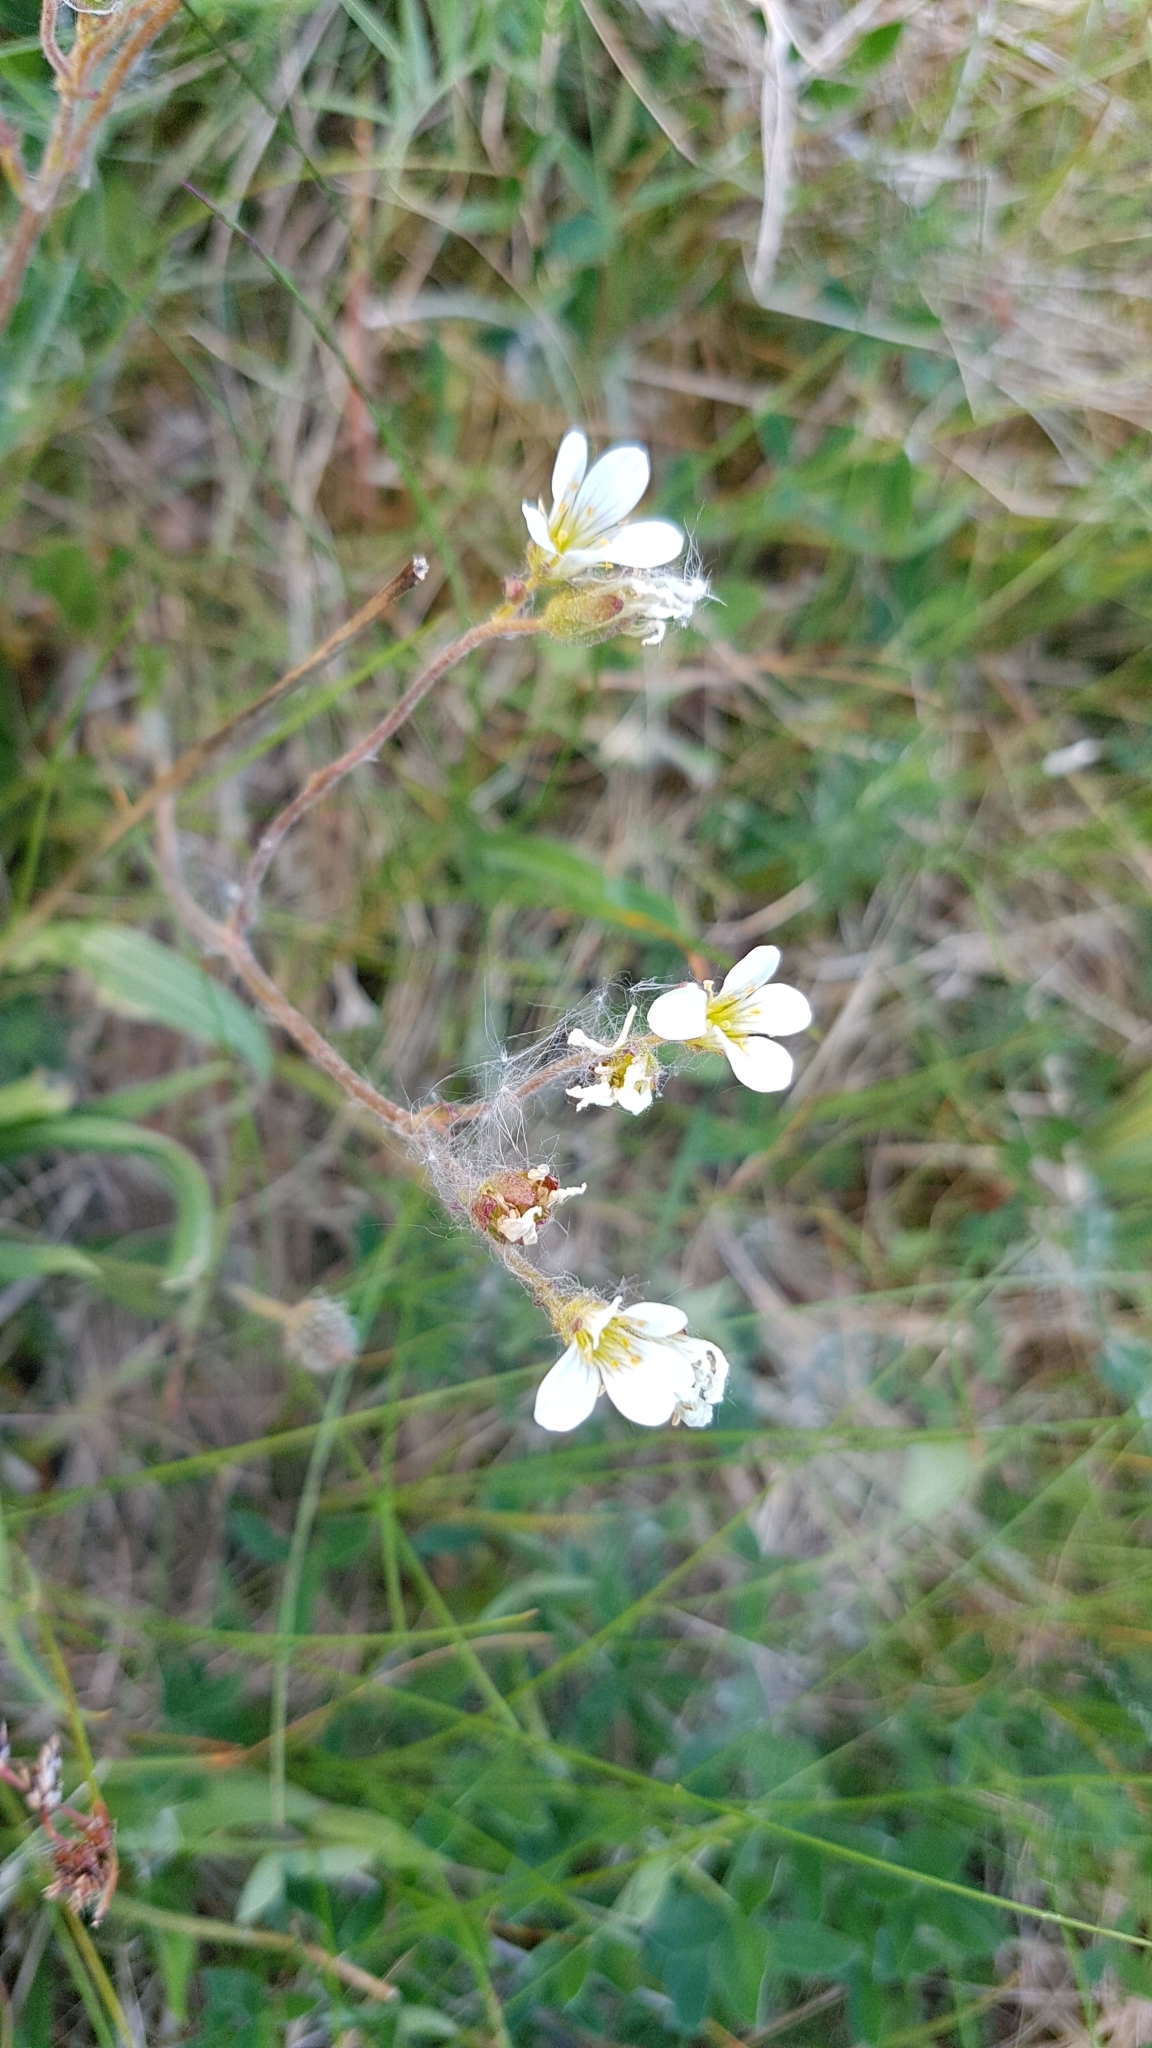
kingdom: Plantae
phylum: Tracheophyta
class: Magnoliopsida
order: Saxifragales
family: Saxifragaceae
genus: Saxifraga
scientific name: Saxifraga granulata
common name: Meadow saxifrage
